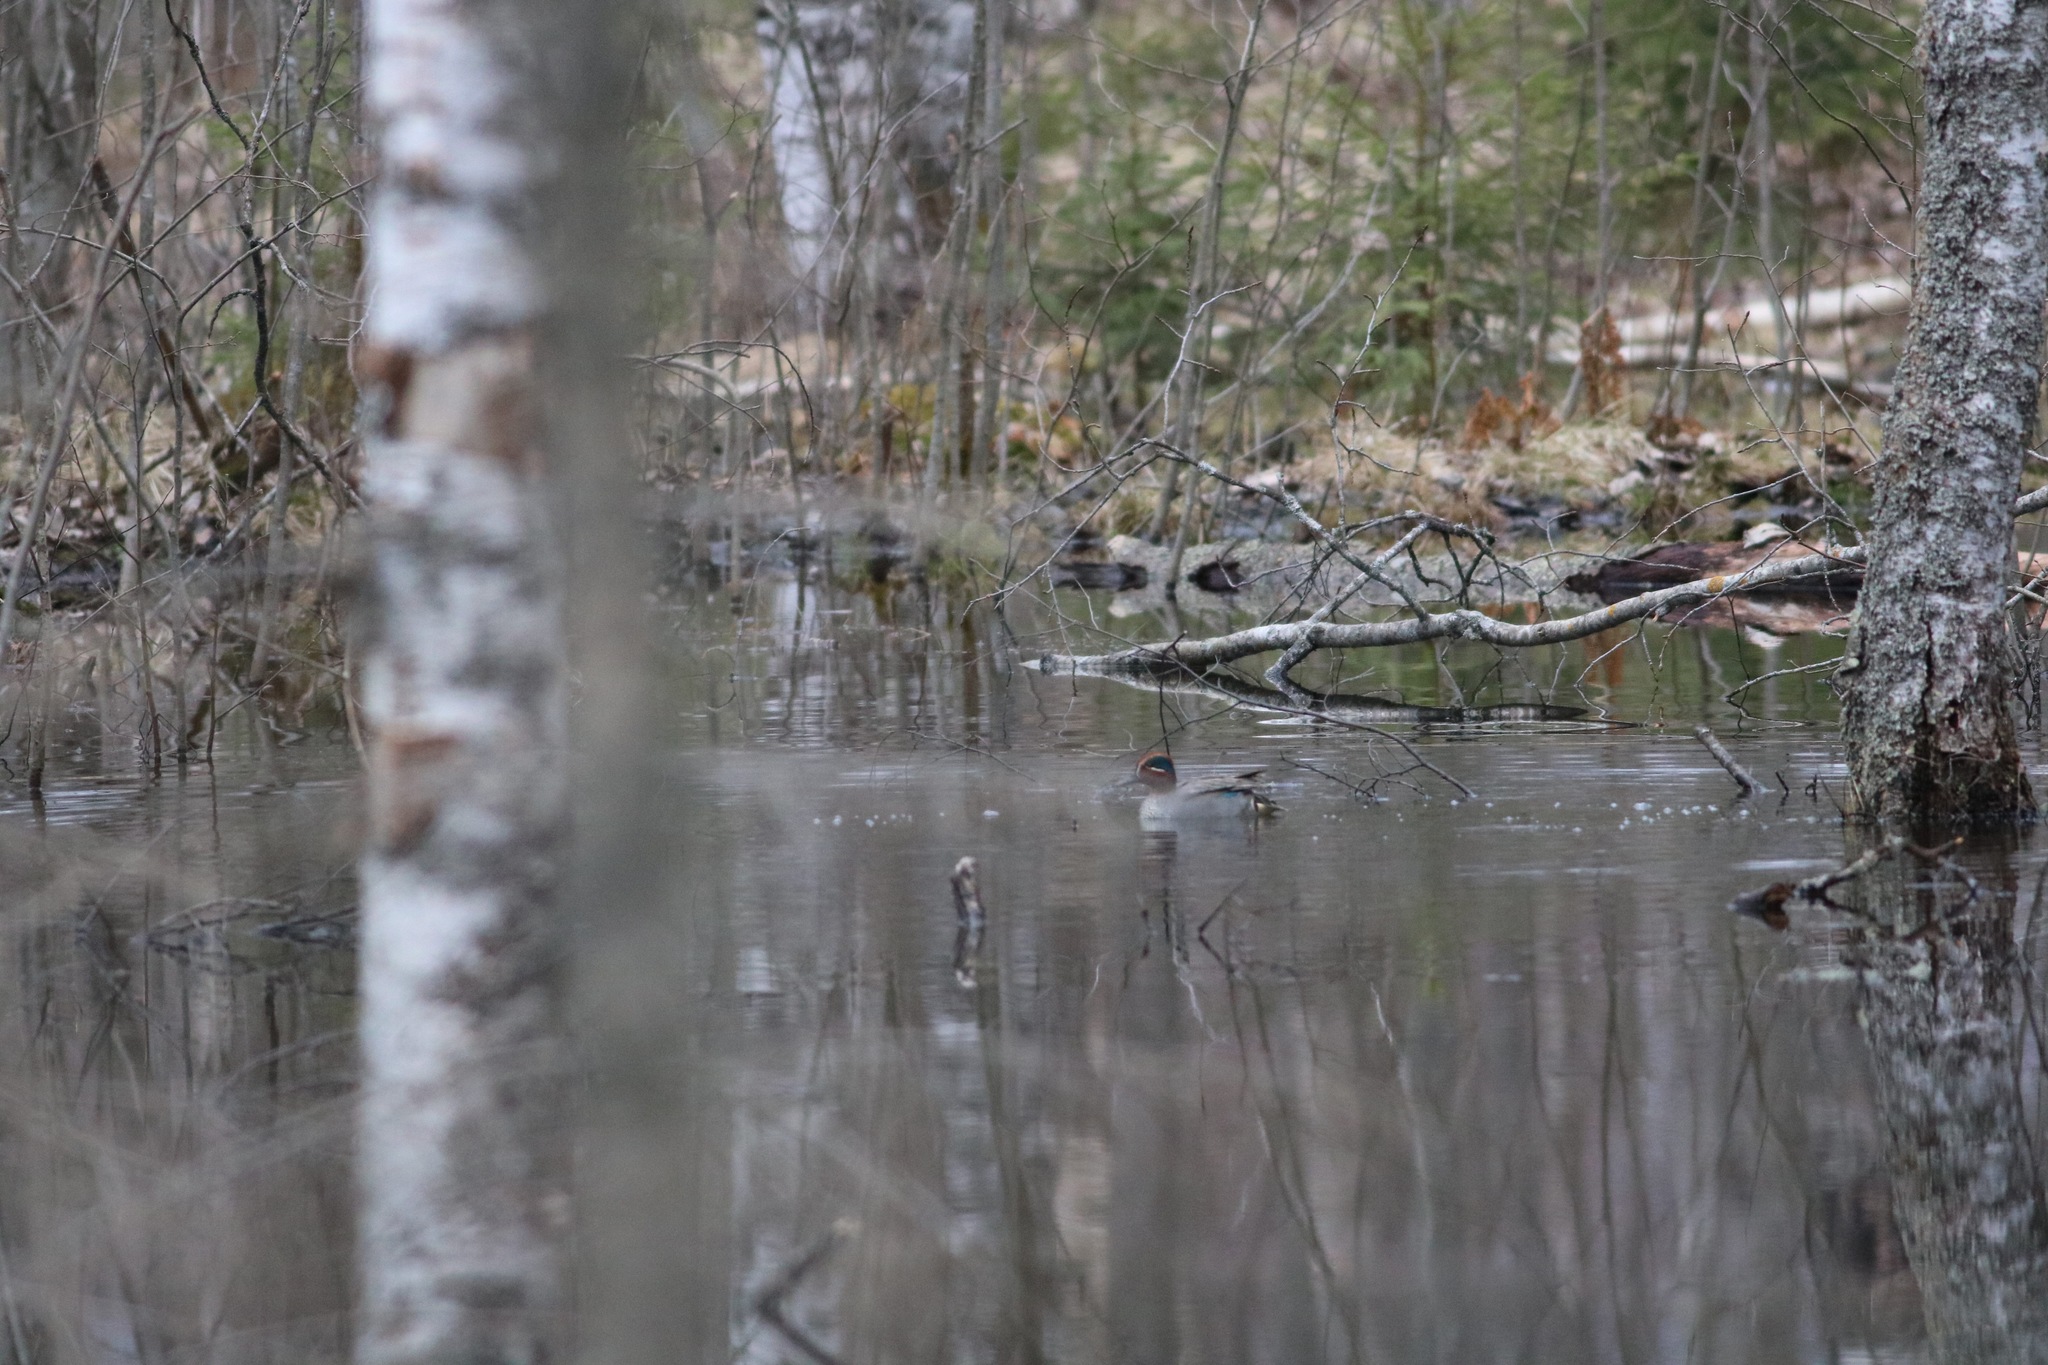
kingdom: Animalia
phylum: Chordata
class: Aves
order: Anseriformes
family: Anatidae
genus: Anas
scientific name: Anas crecca
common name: Eurasian teal
